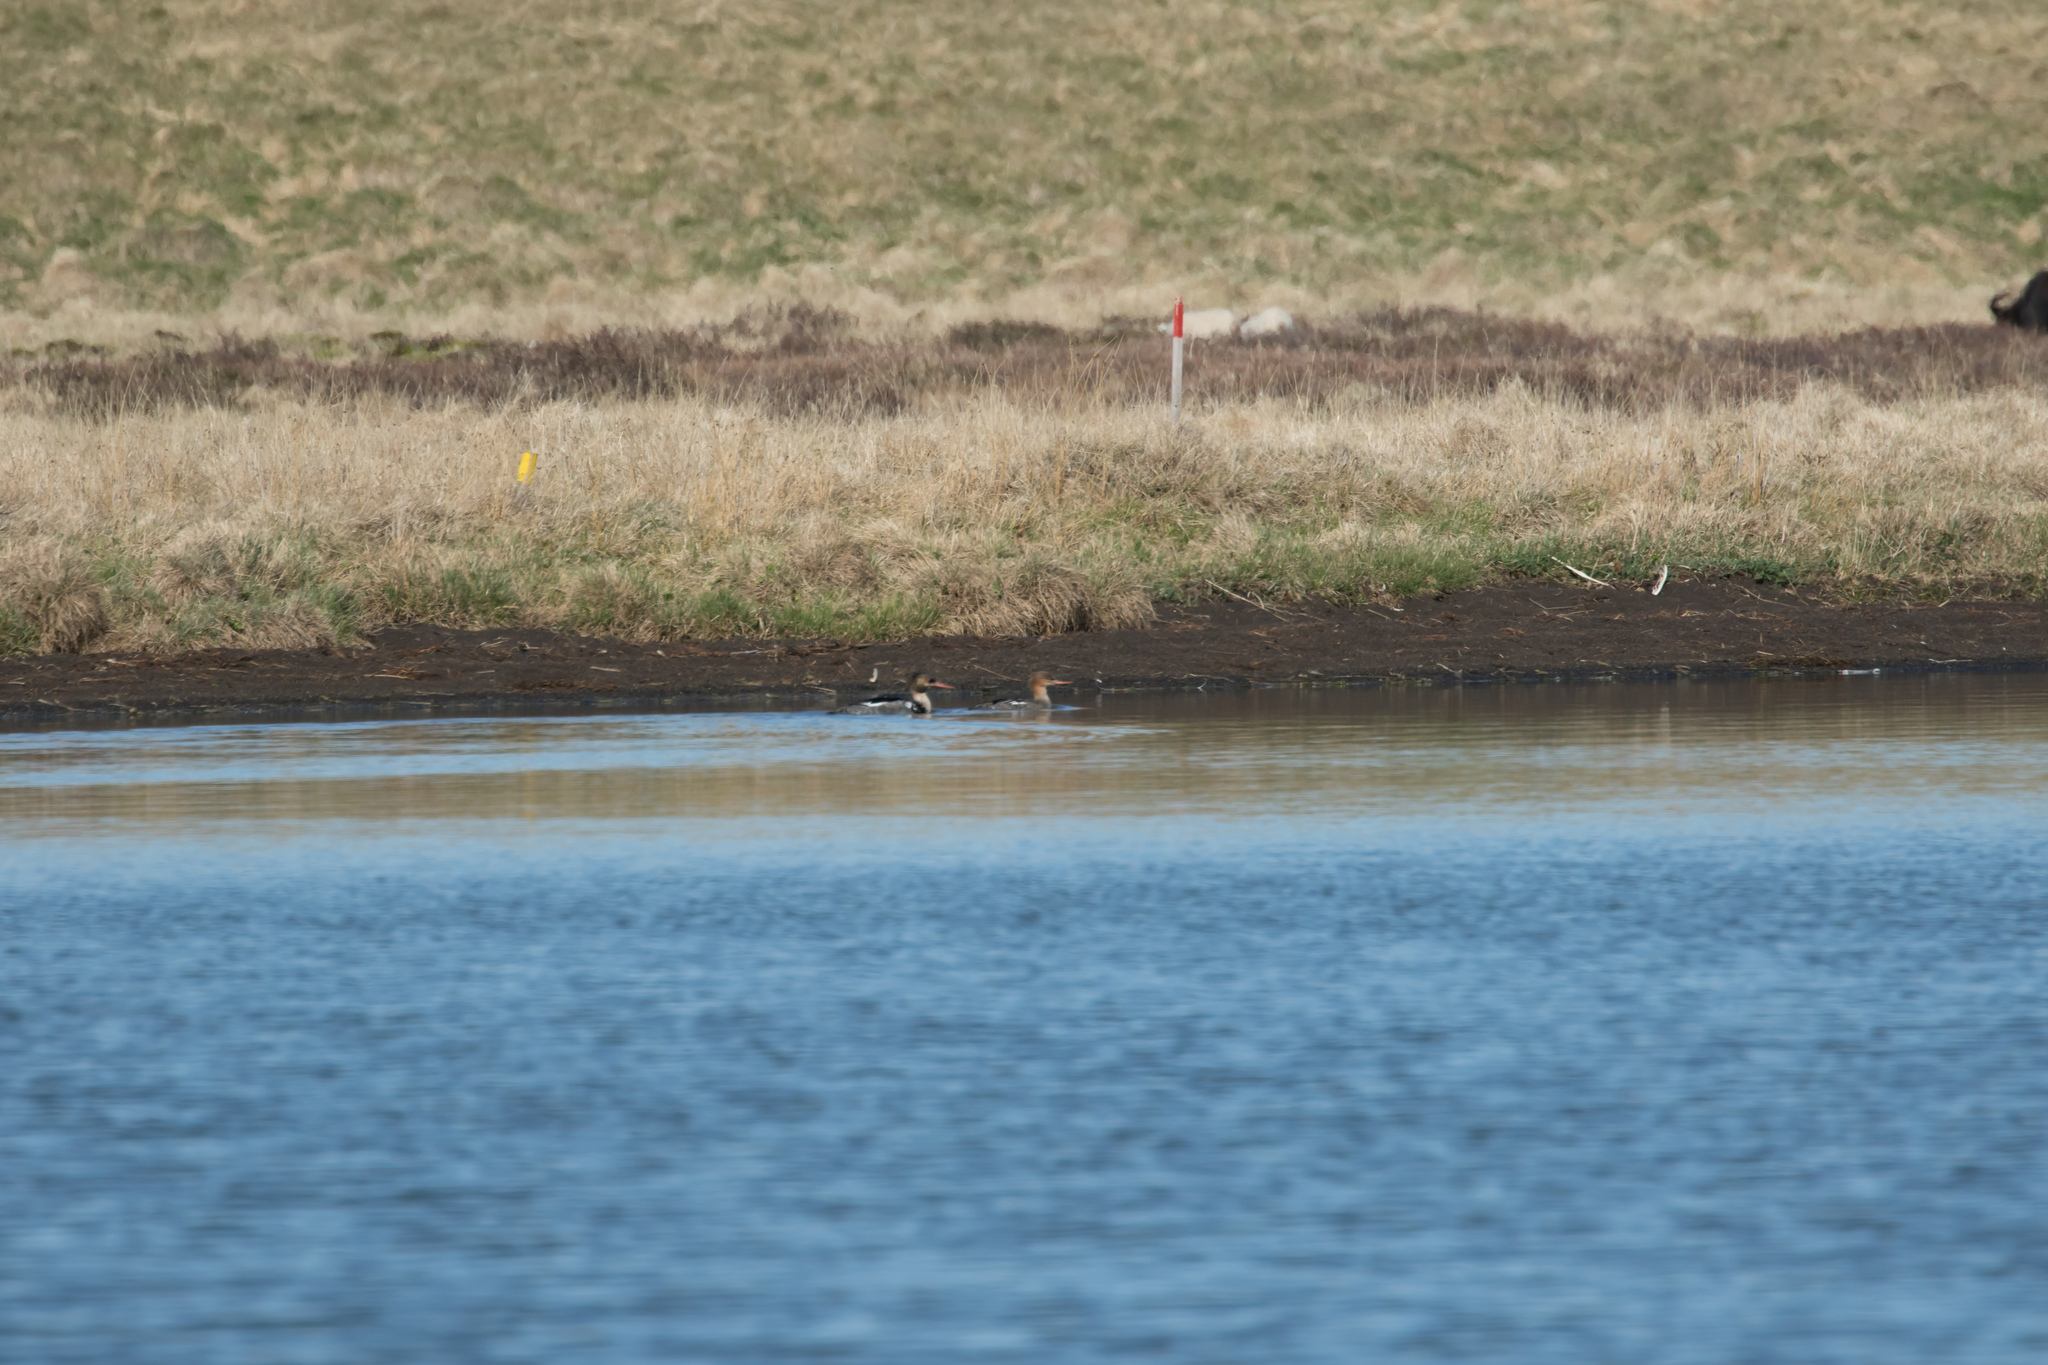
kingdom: Animalia
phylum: Chordata
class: Aves
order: Anseriformes
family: Anatidae
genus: Mergus
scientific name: Mergus serrator
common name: Red-breasted merganser
